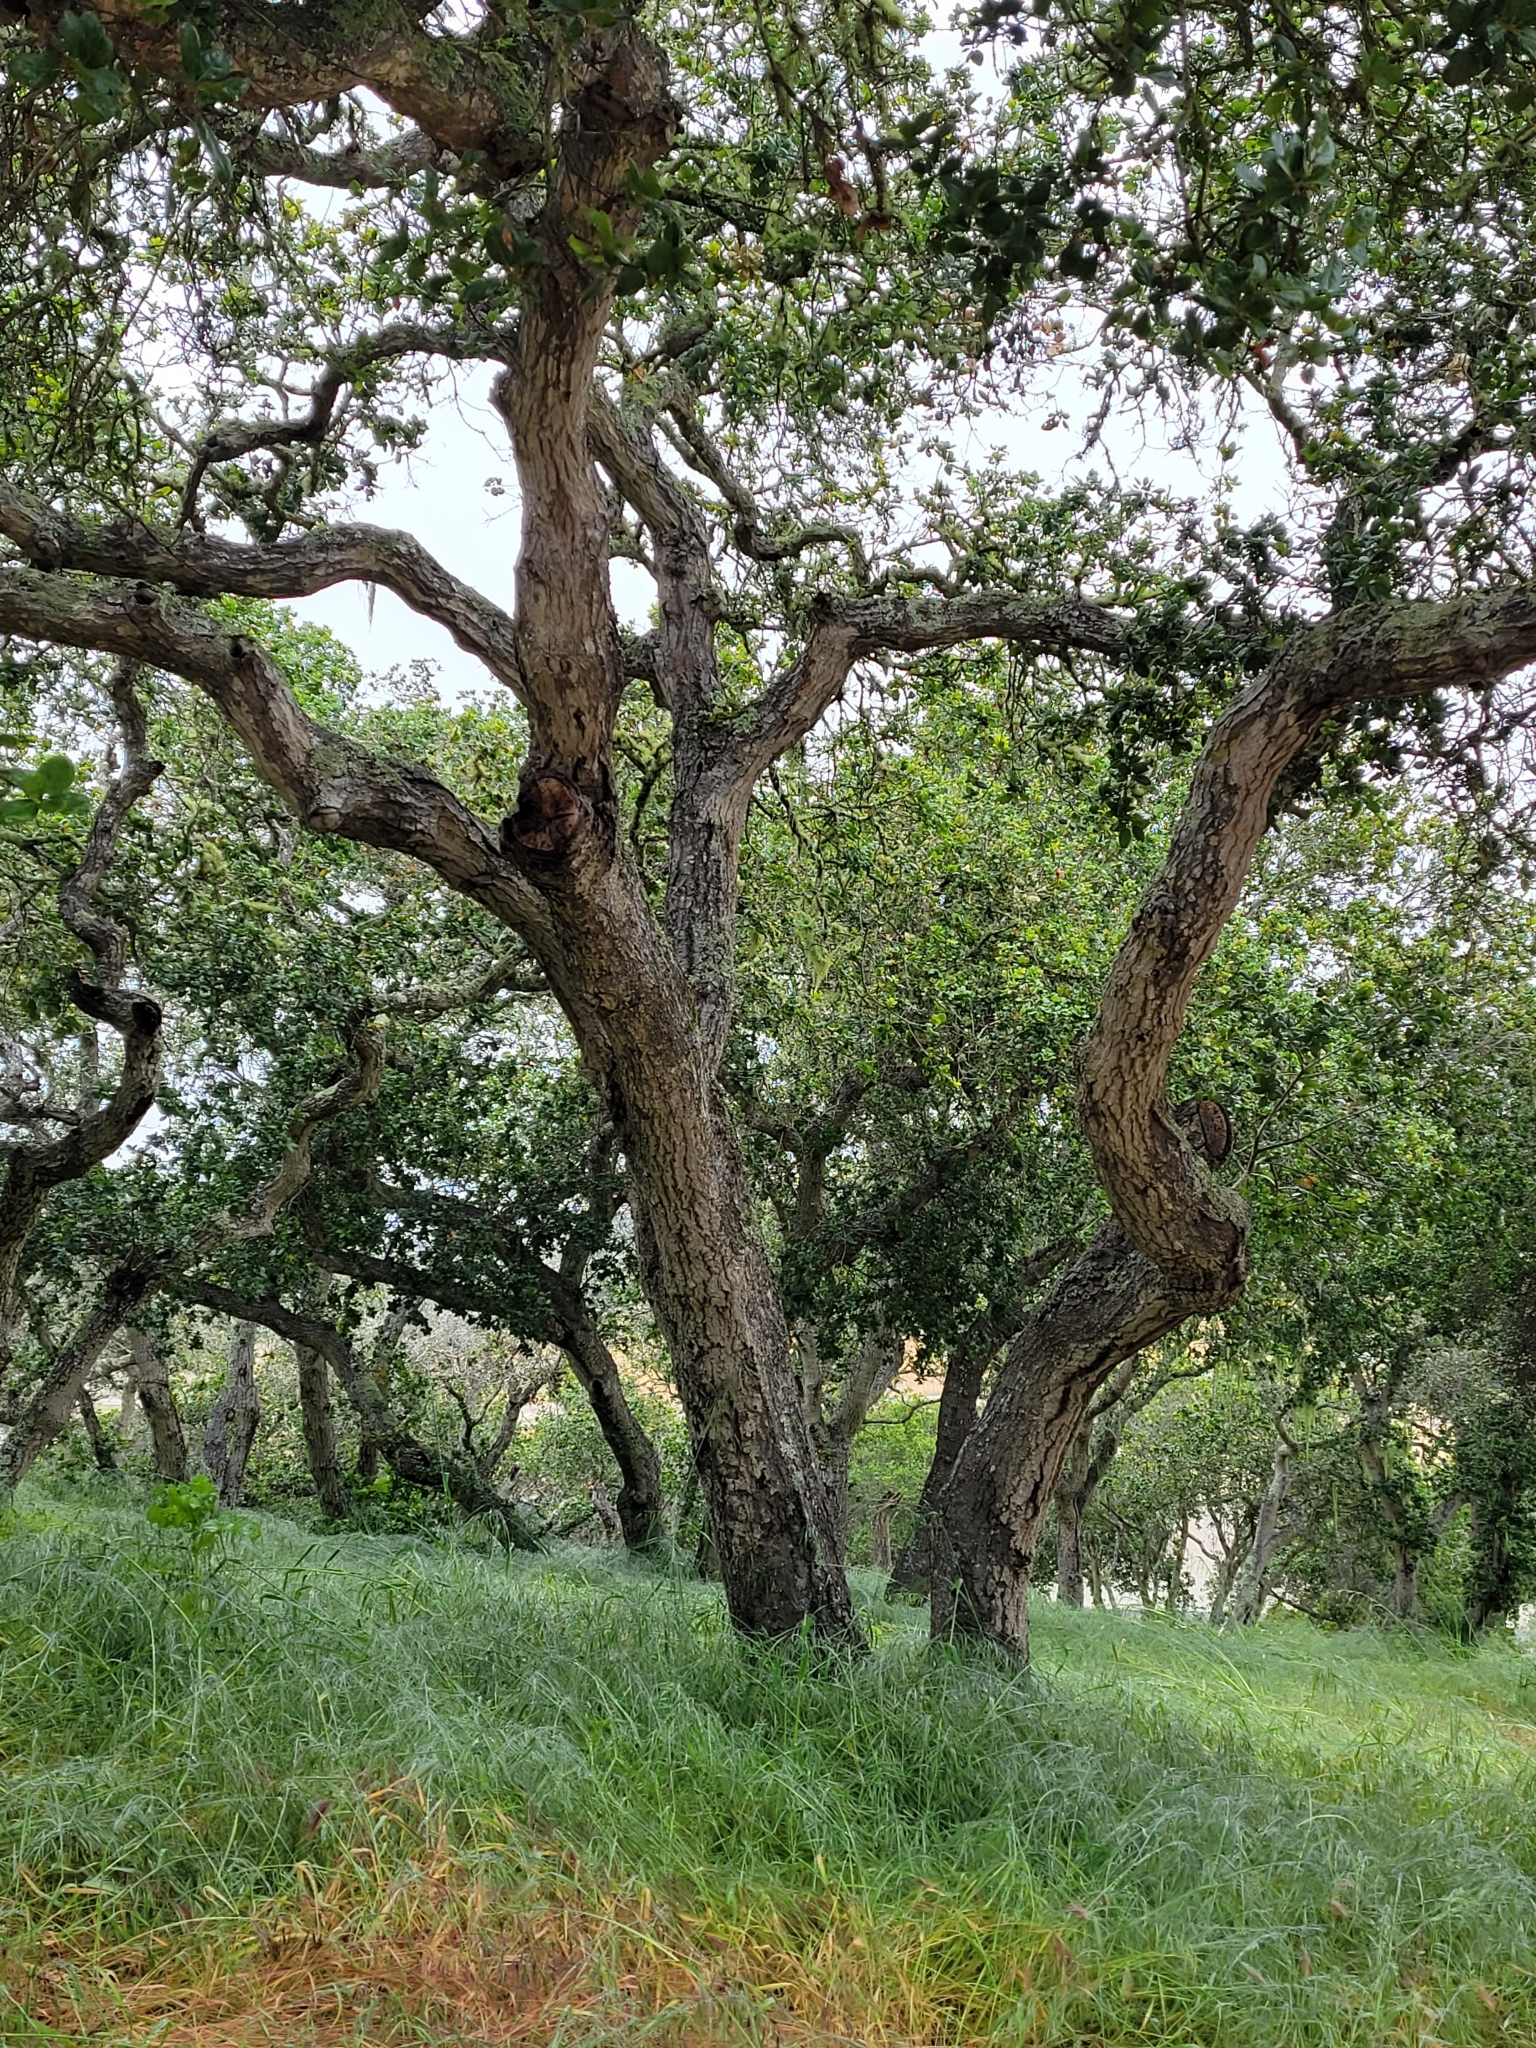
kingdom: Plantae
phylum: Tracheophyta
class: Magnoliopsida
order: Fagales
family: Fagaceae
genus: Quercus
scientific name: Quercus agrifolia
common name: California live oak
